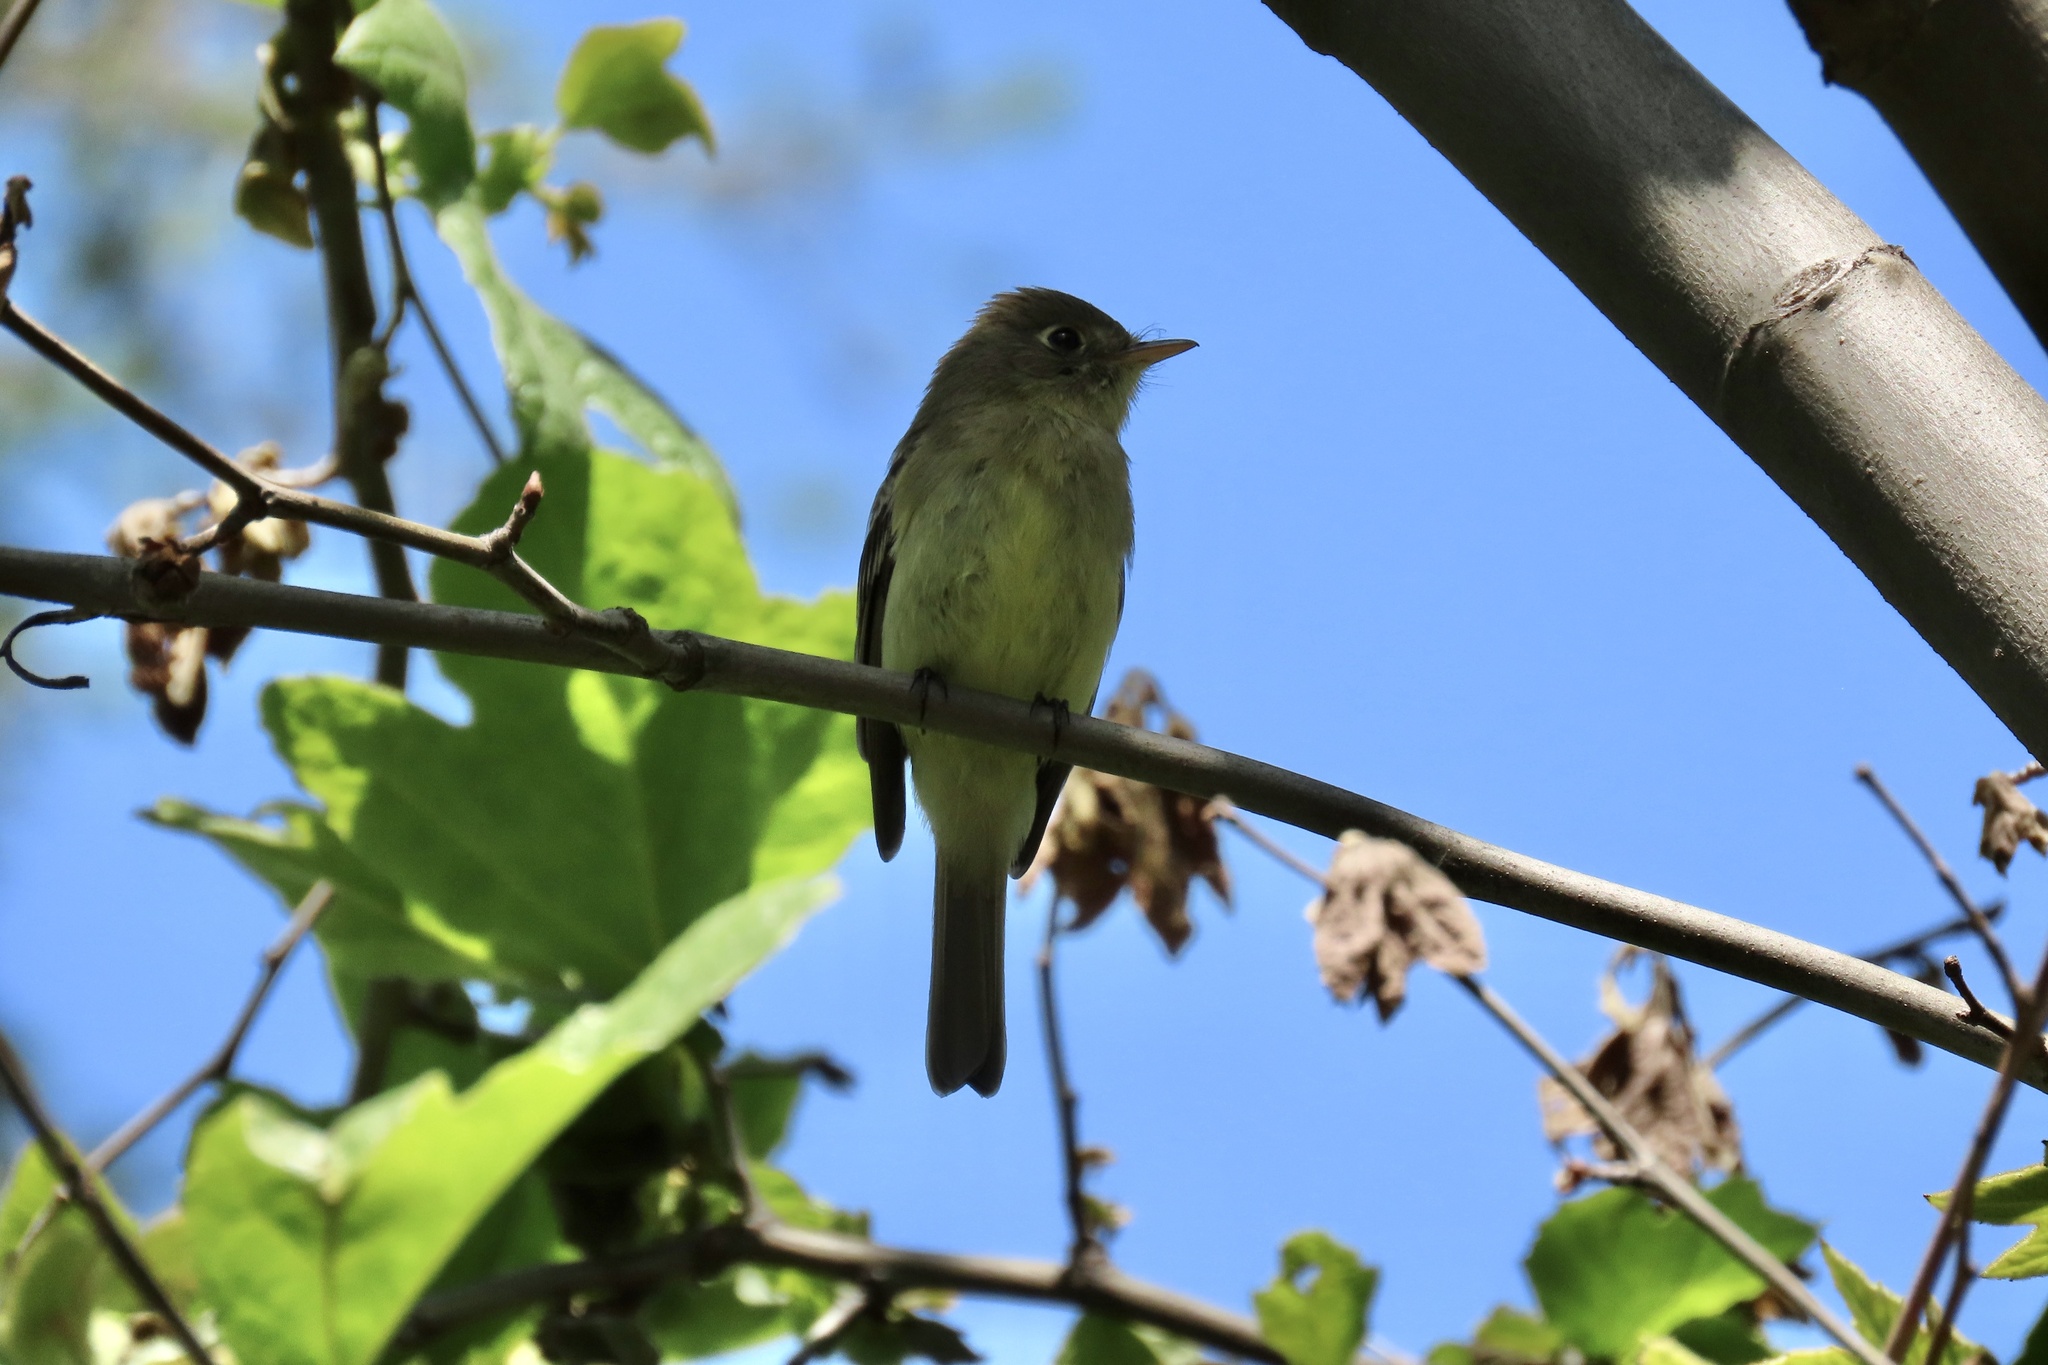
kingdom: Animalia
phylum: Chordata
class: Aves
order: Passeriformes
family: Tyrannidae
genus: Empidonax
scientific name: Empidonax difficilis
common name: Pacific-slope flycatcher
